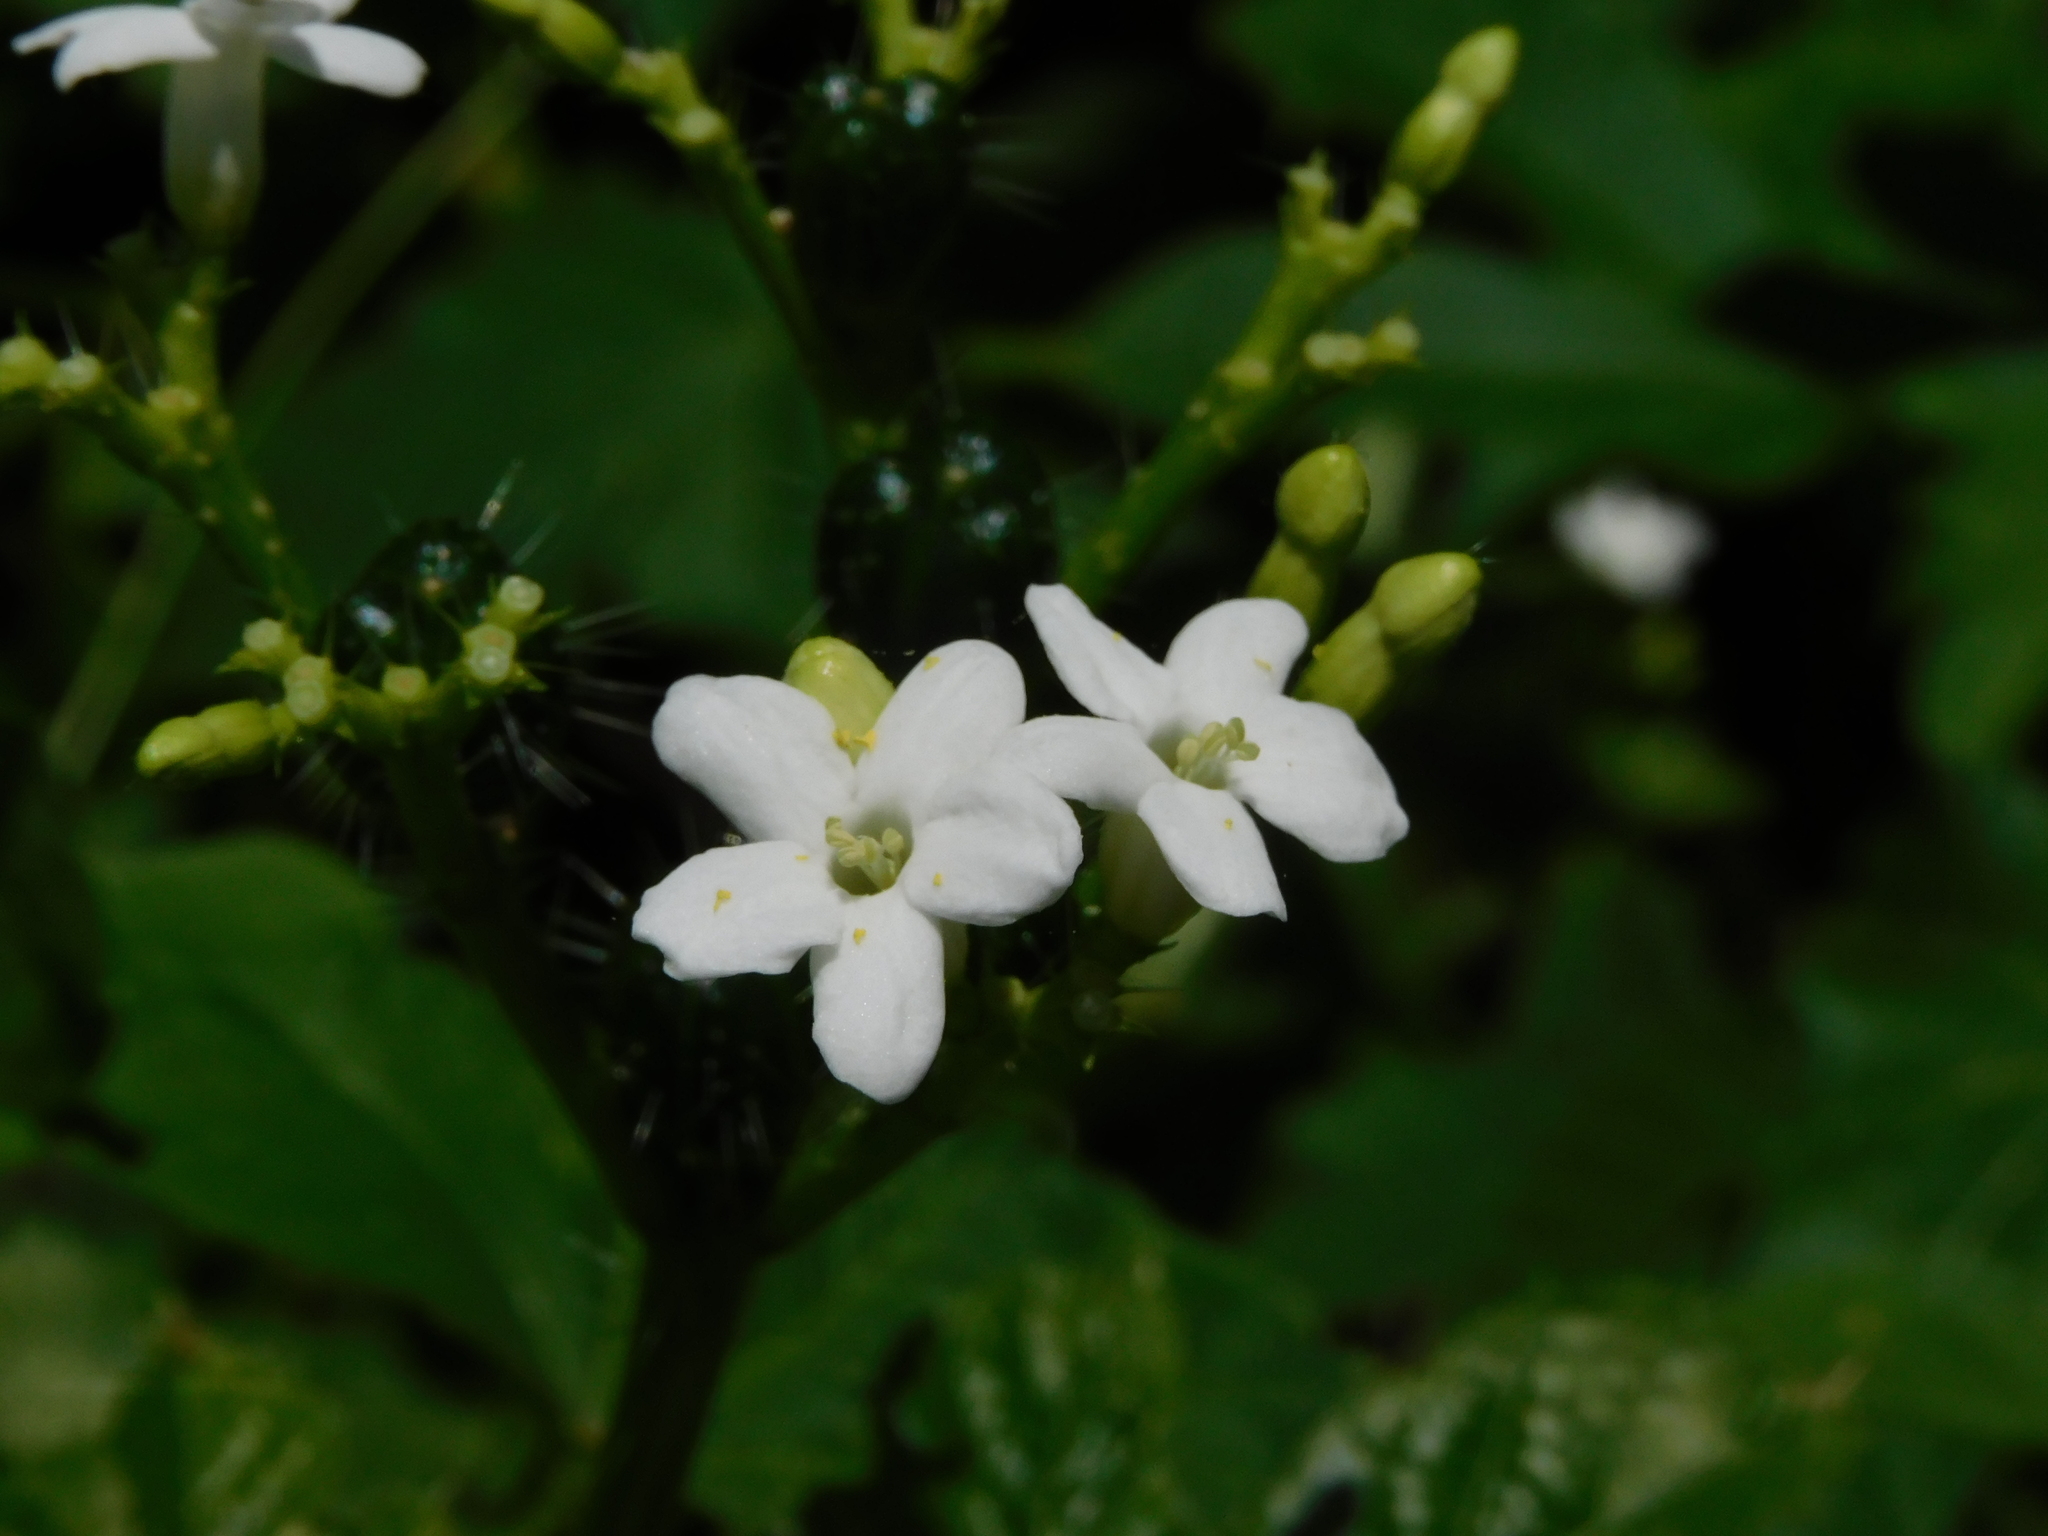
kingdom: Plantae
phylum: Tracheophyta
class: Magnoliopsida
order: Malpighiales
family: Euphorbiaceae
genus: Cnidoscolus
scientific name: Cnidoscolus urens
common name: Bull-nettle
